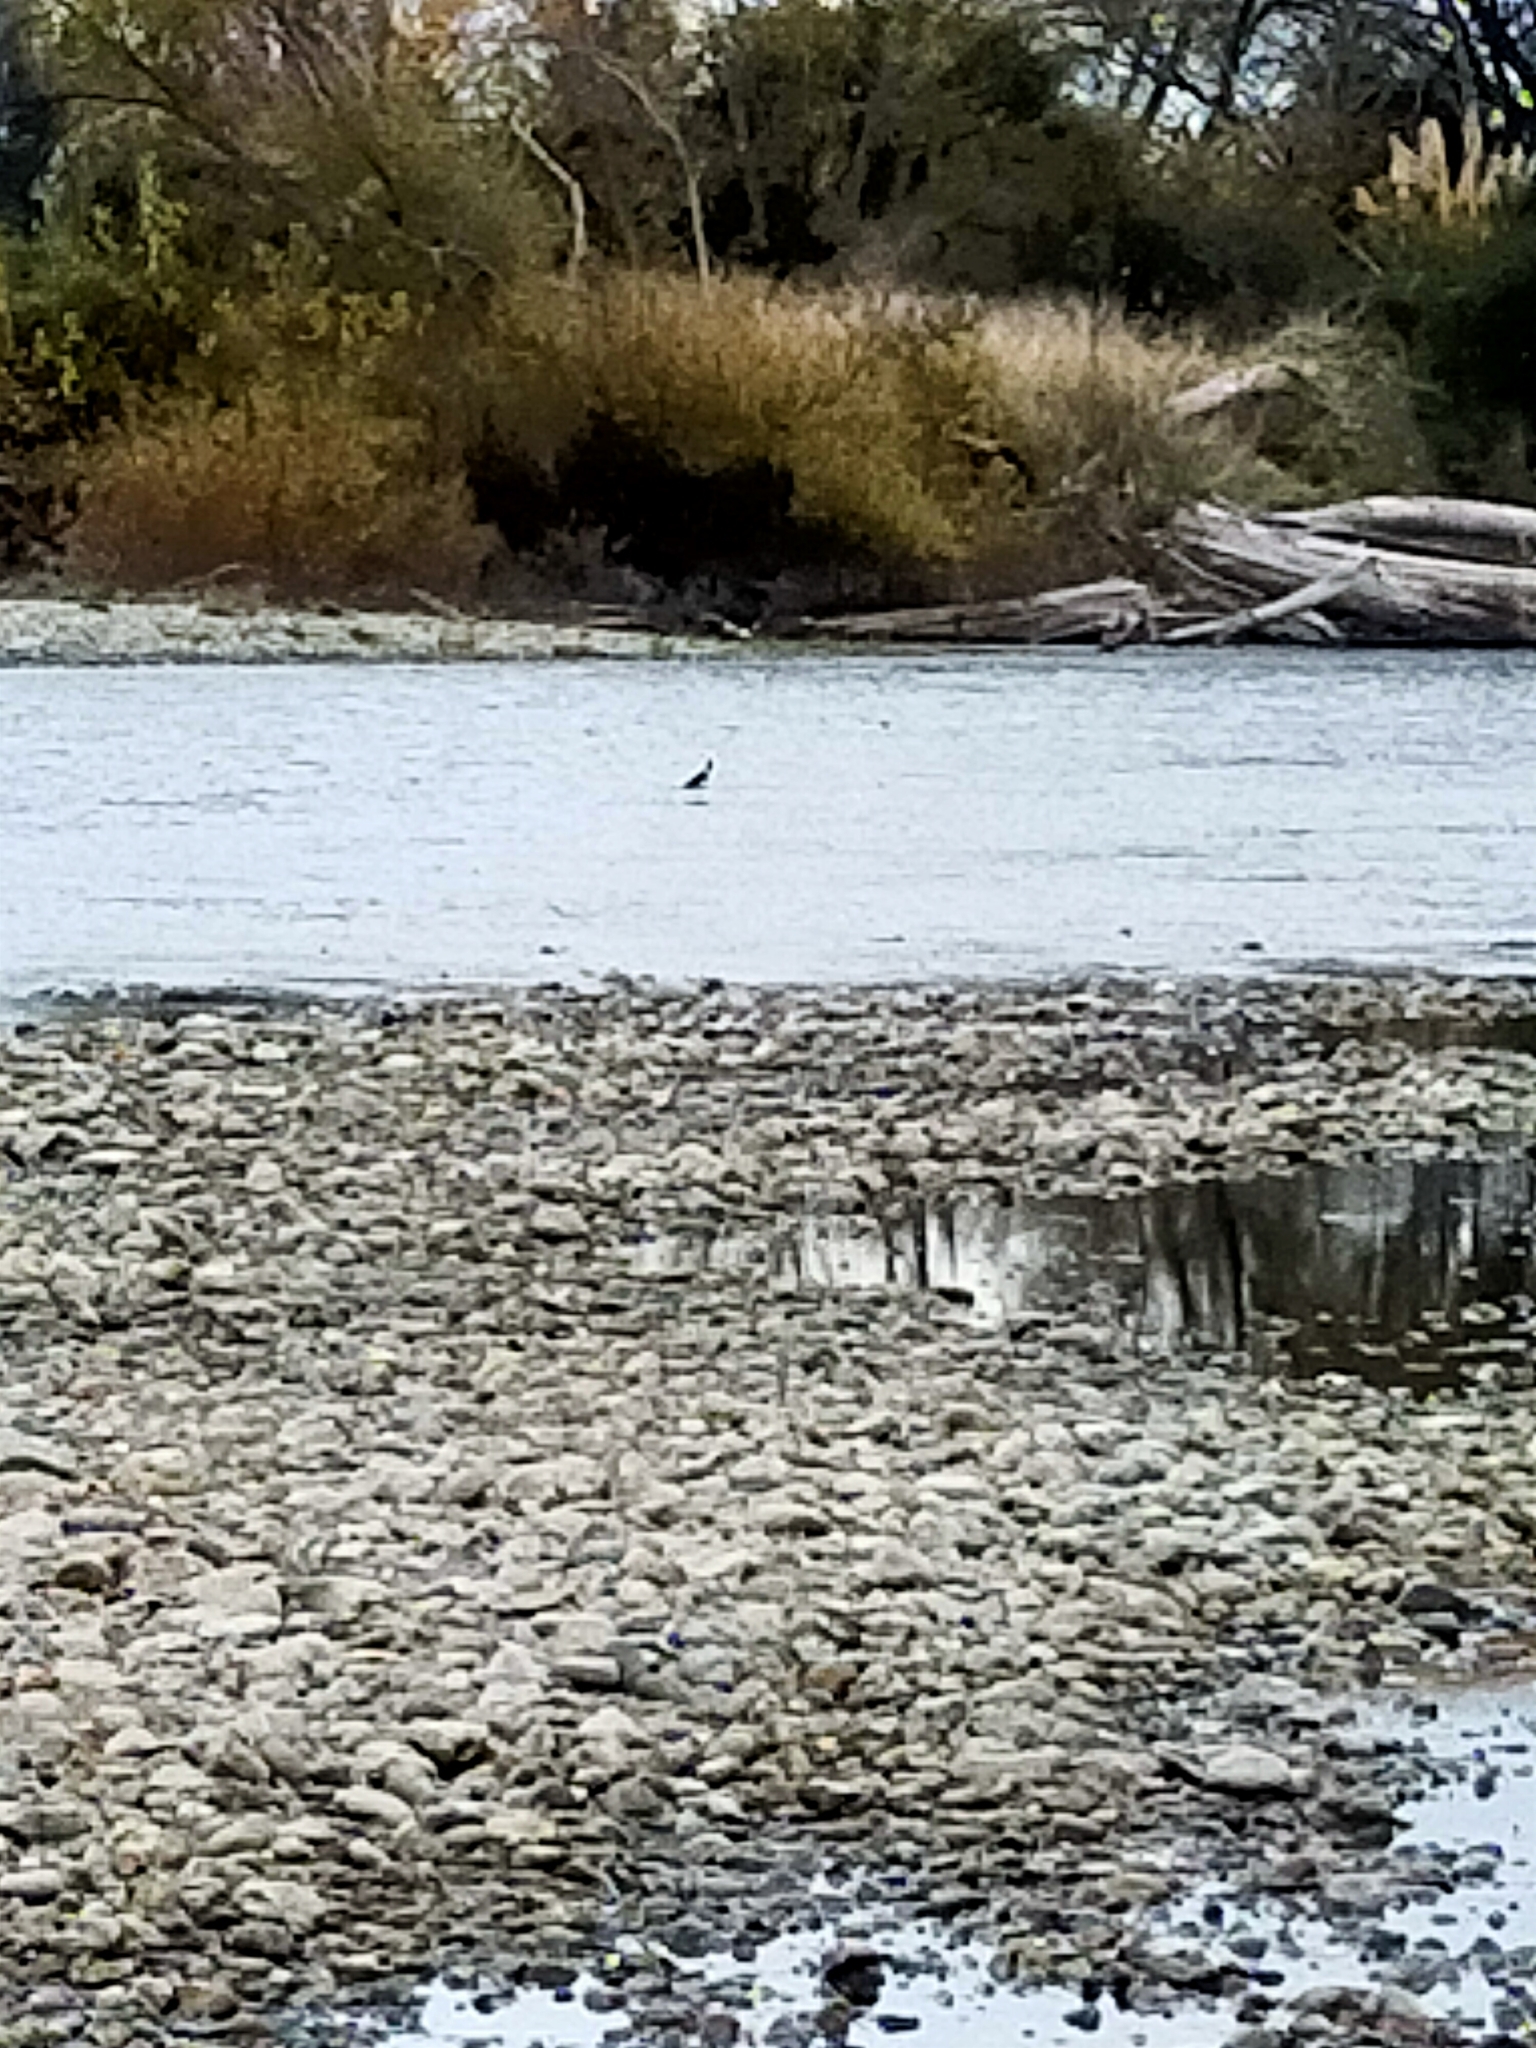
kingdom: Animalia
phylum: Chordata
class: Aves
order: Charadriiformes
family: Recurvirostridae
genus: Himantopus
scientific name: Himantopus leucocephalus
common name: White-headed stilt
